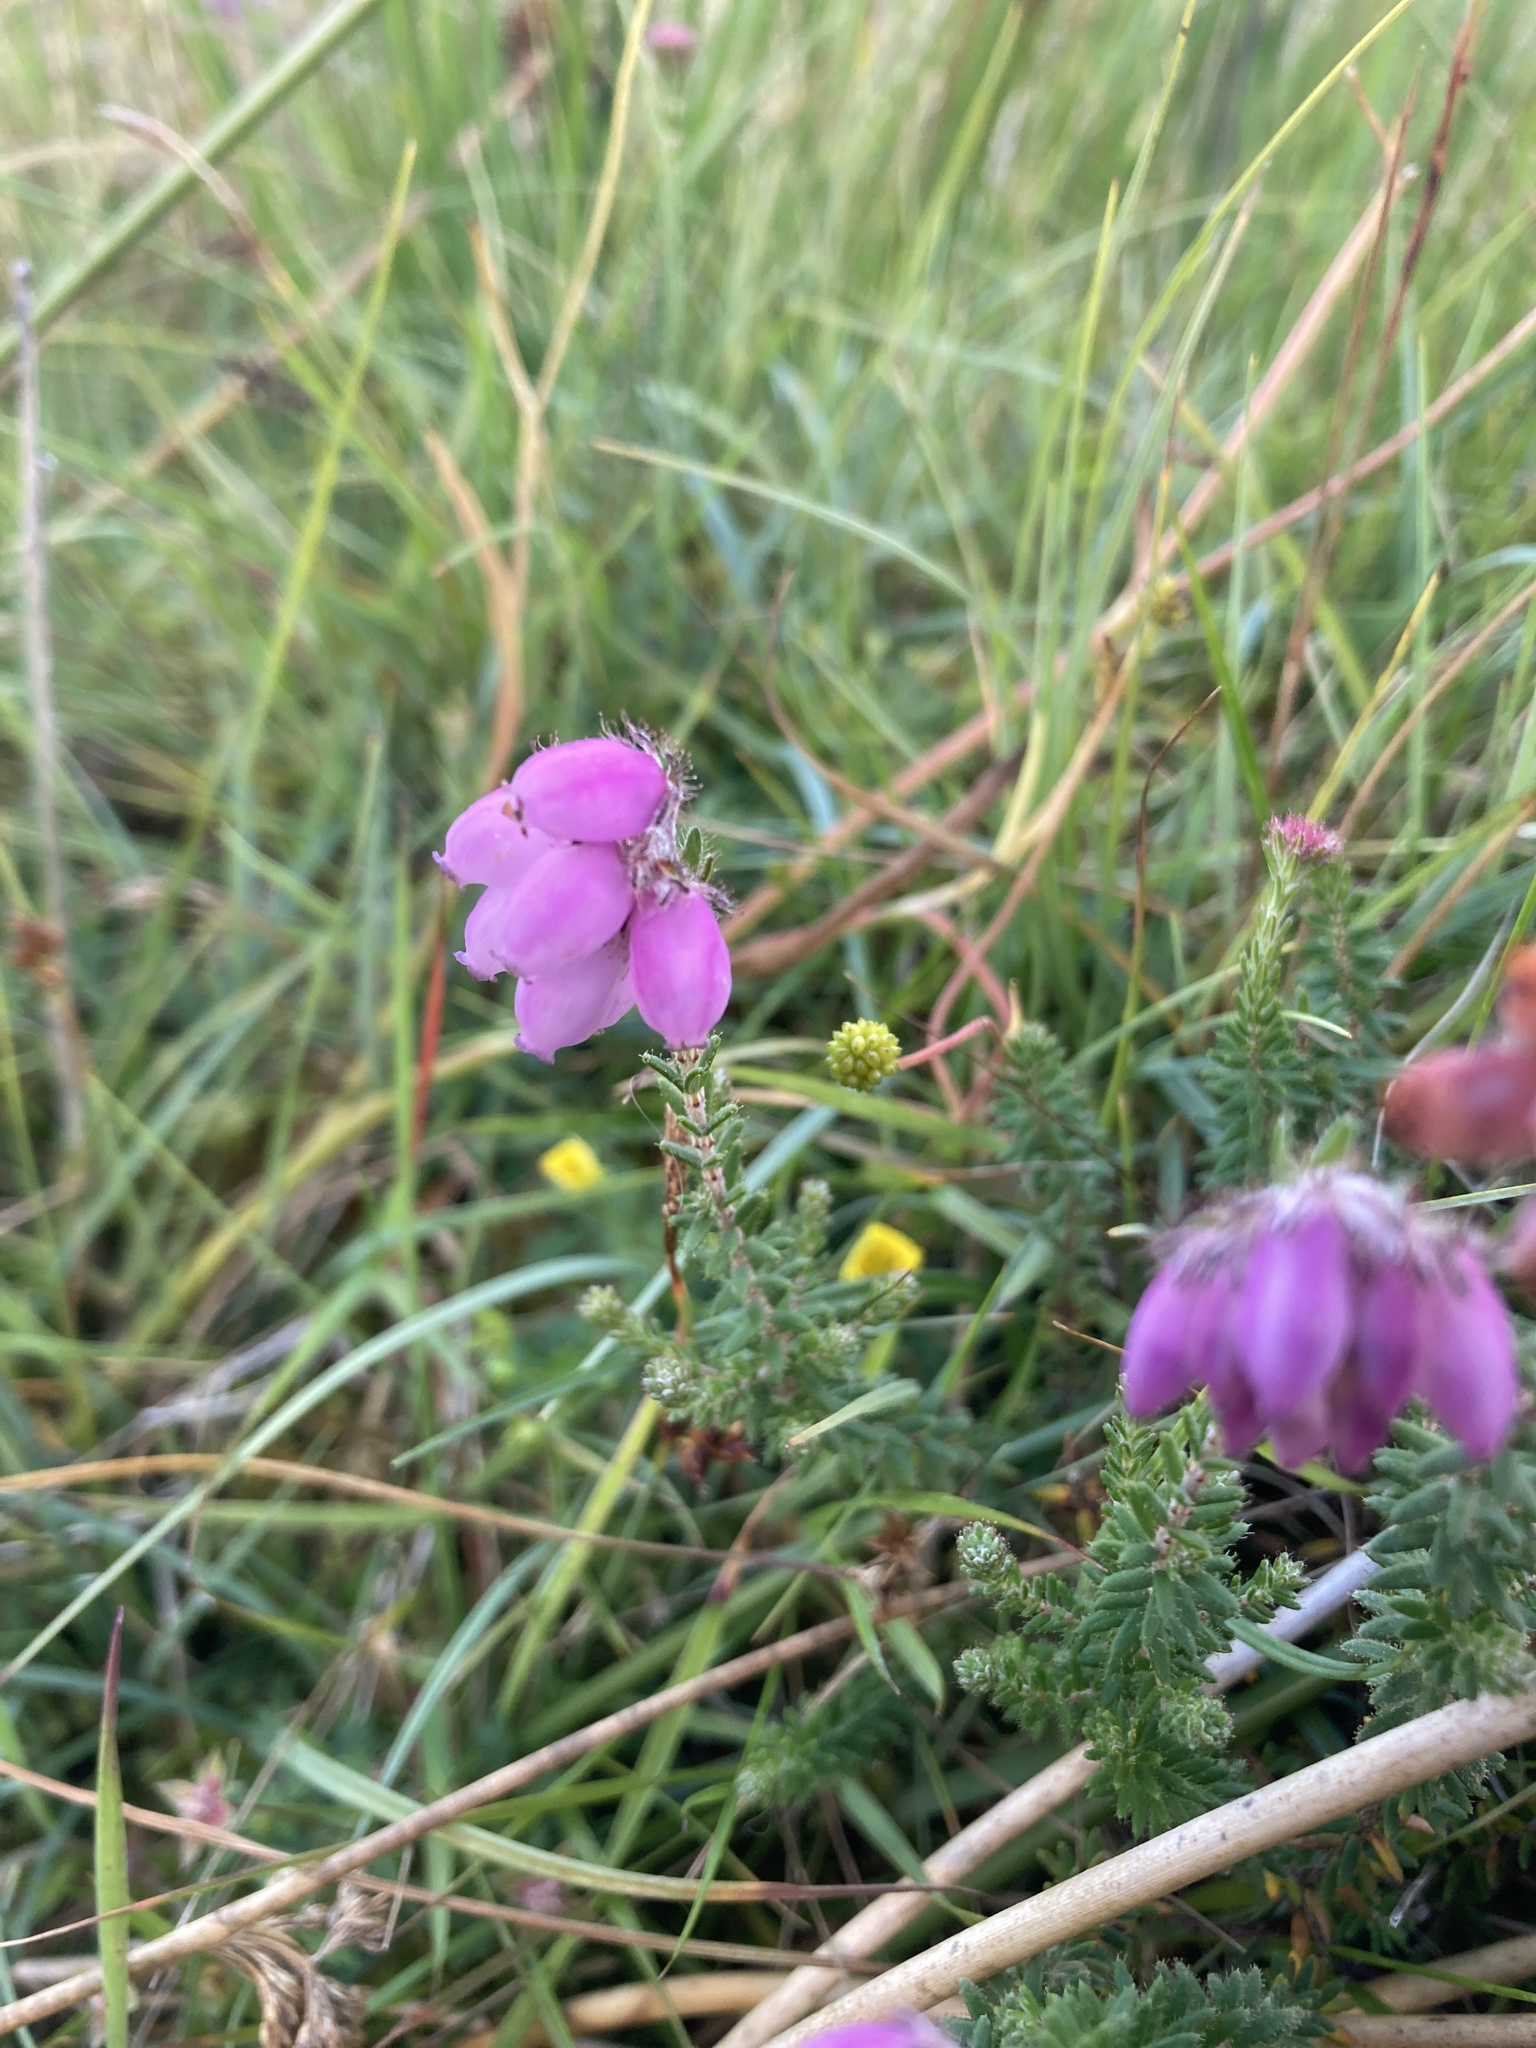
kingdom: Plantae
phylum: Tracheophyta
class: Magnoliopsida
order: Ericales
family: Ericaceae
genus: Erica
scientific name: Erica tetralix
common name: Cross-leaved heath
